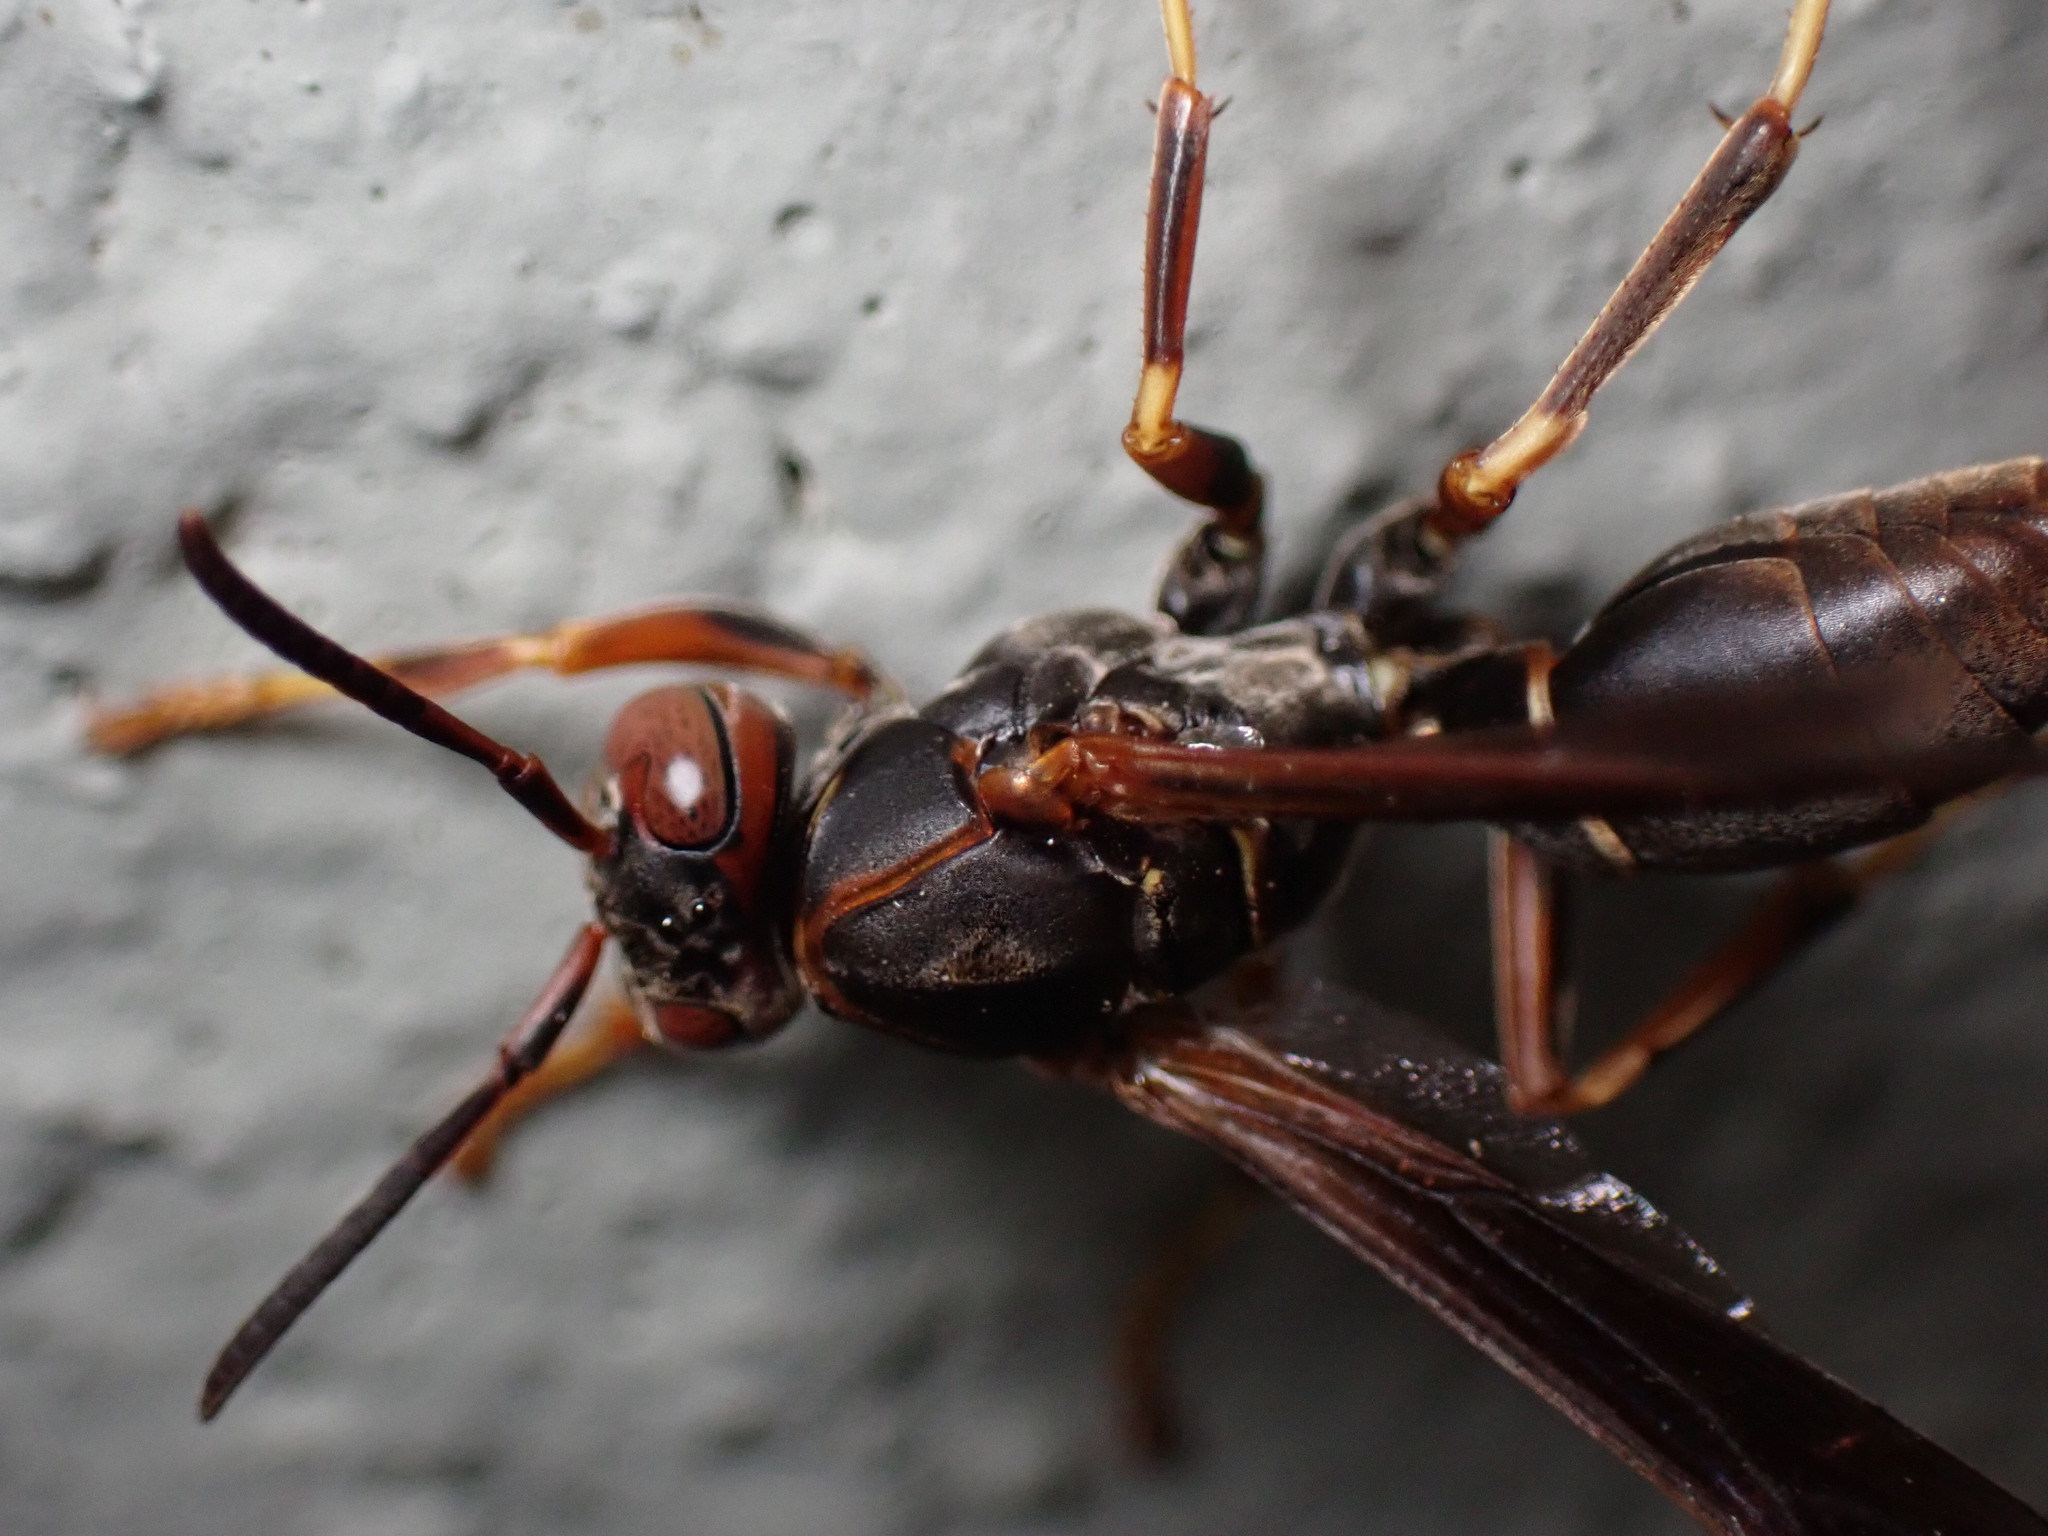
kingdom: Animalia
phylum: Arthropoda
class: Insecta
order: Hymenoptera
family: Eumenidae
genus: Polistes
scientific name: Polistes fuscatus
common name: Dark paper wasp
